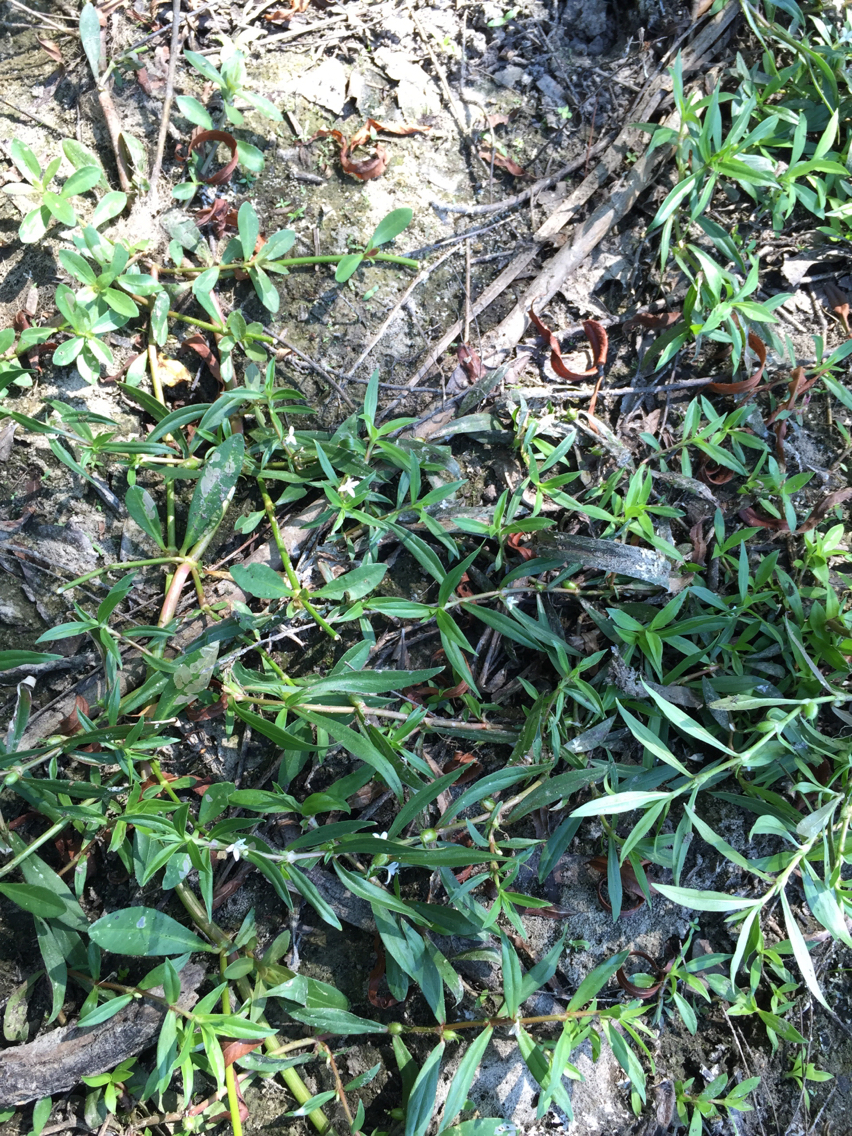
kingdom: Plantae
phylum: Tracheophyta
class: Magnoliopsida
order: Gentianales
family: Rubiaceae
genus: Diodia
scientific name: Diodia virginiana
